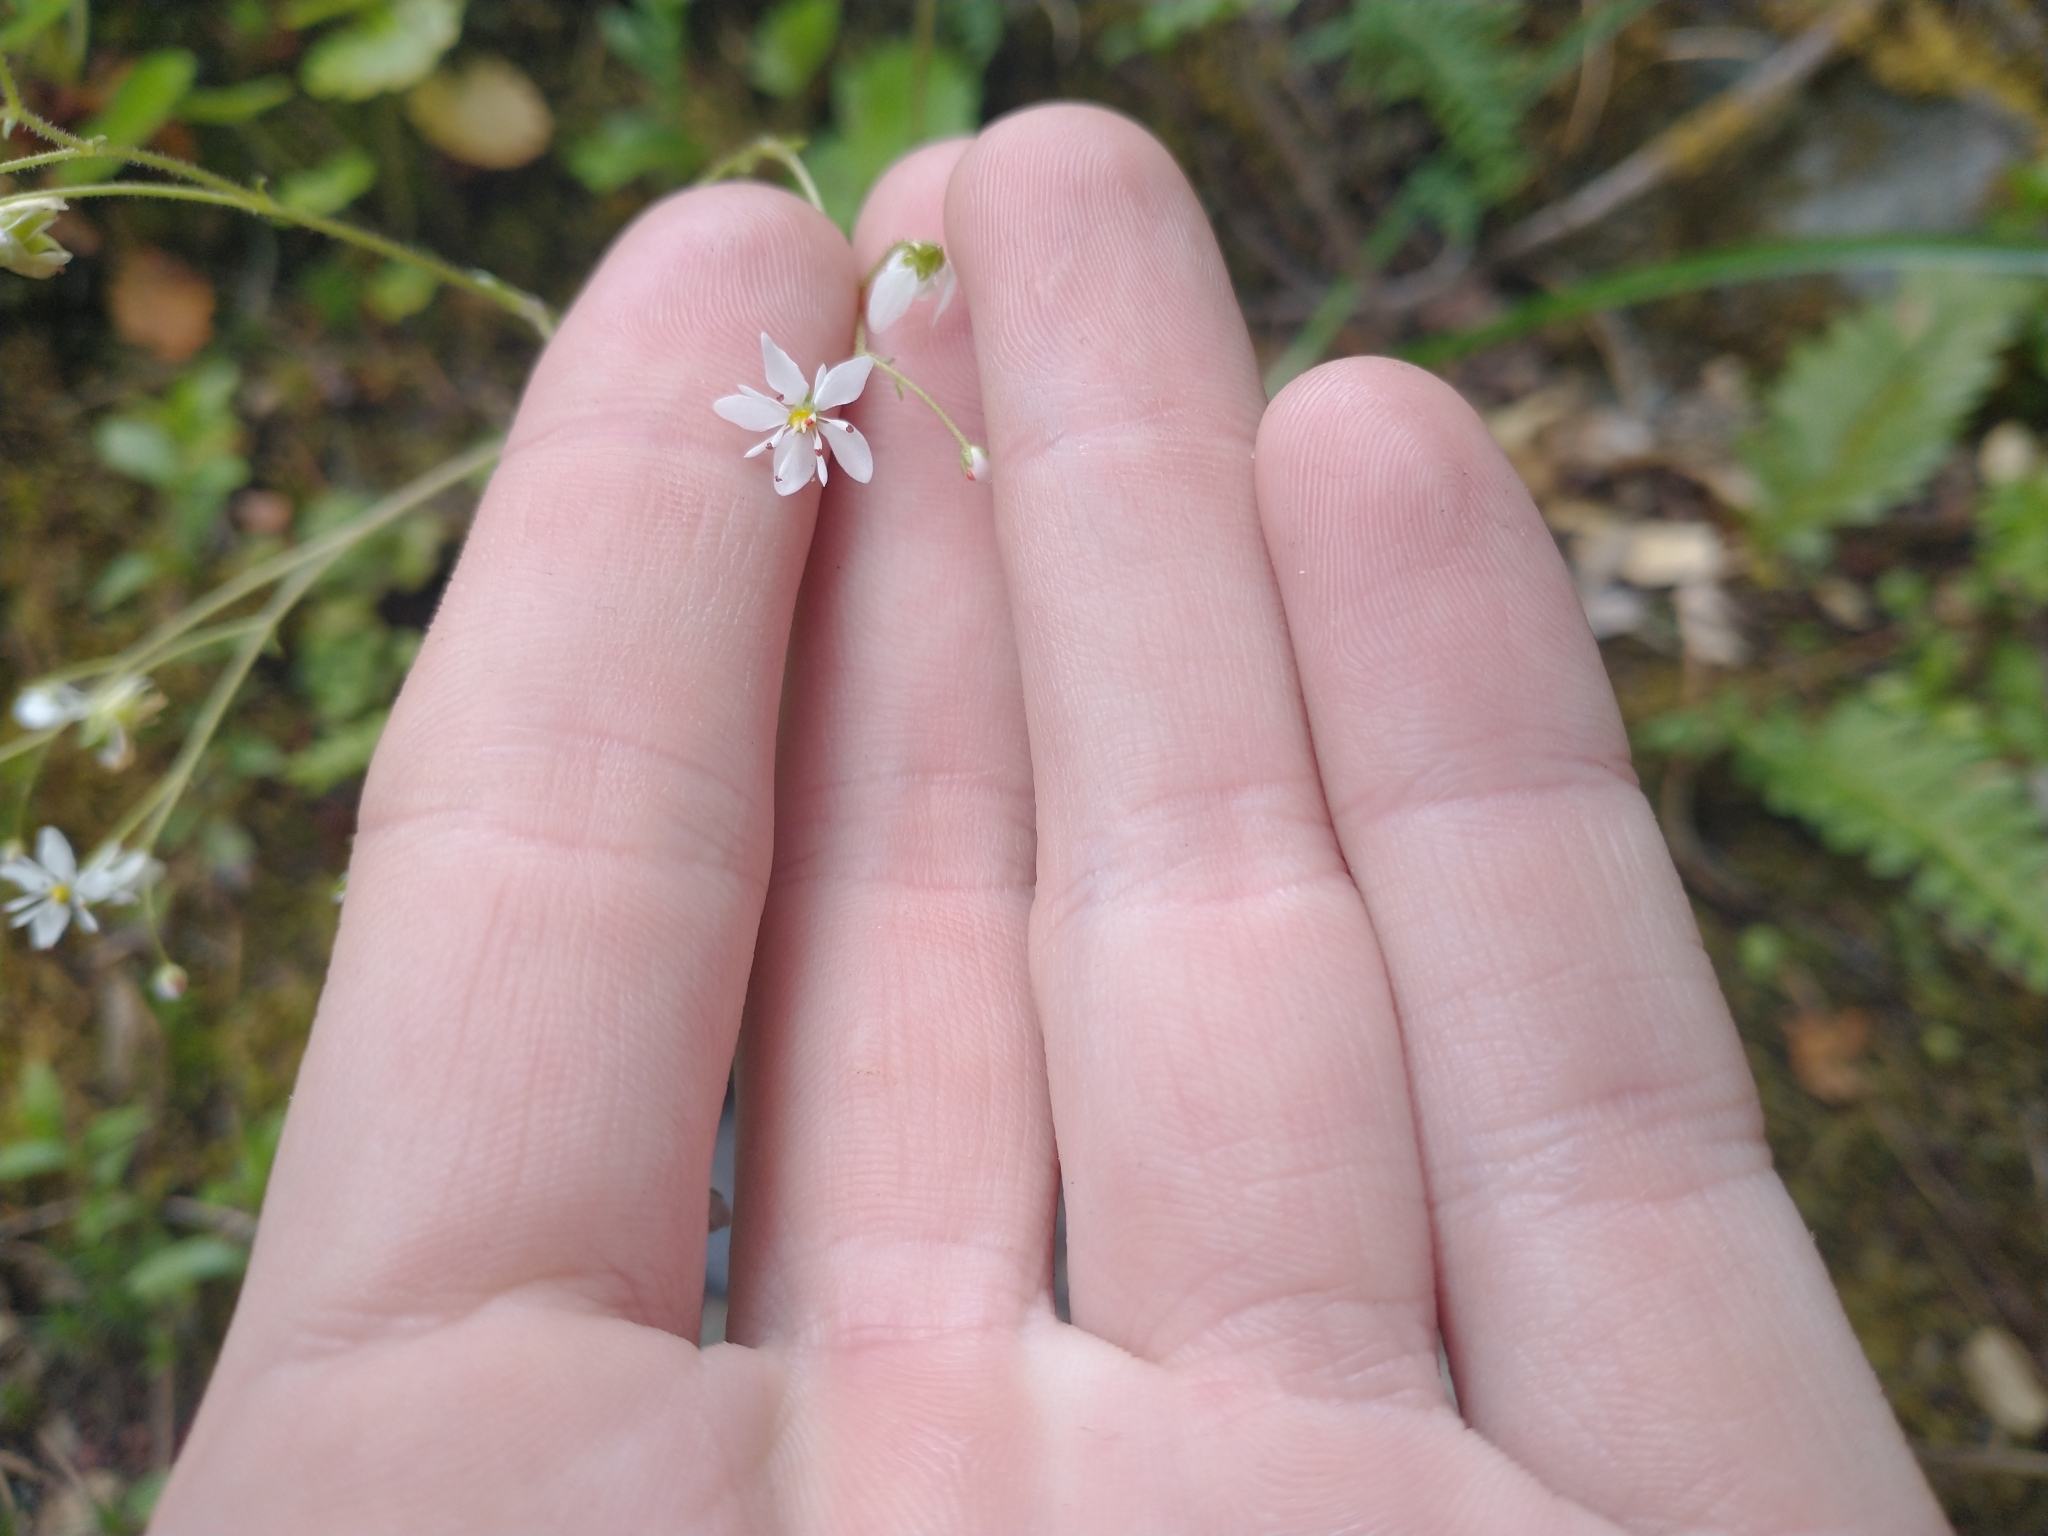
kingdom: Plantae
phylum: Tracheophyta
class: Magnoliopsida
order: Saxifragales
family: Saxifragaceae
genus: Micranthes
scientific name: Micranthes mertensiana
